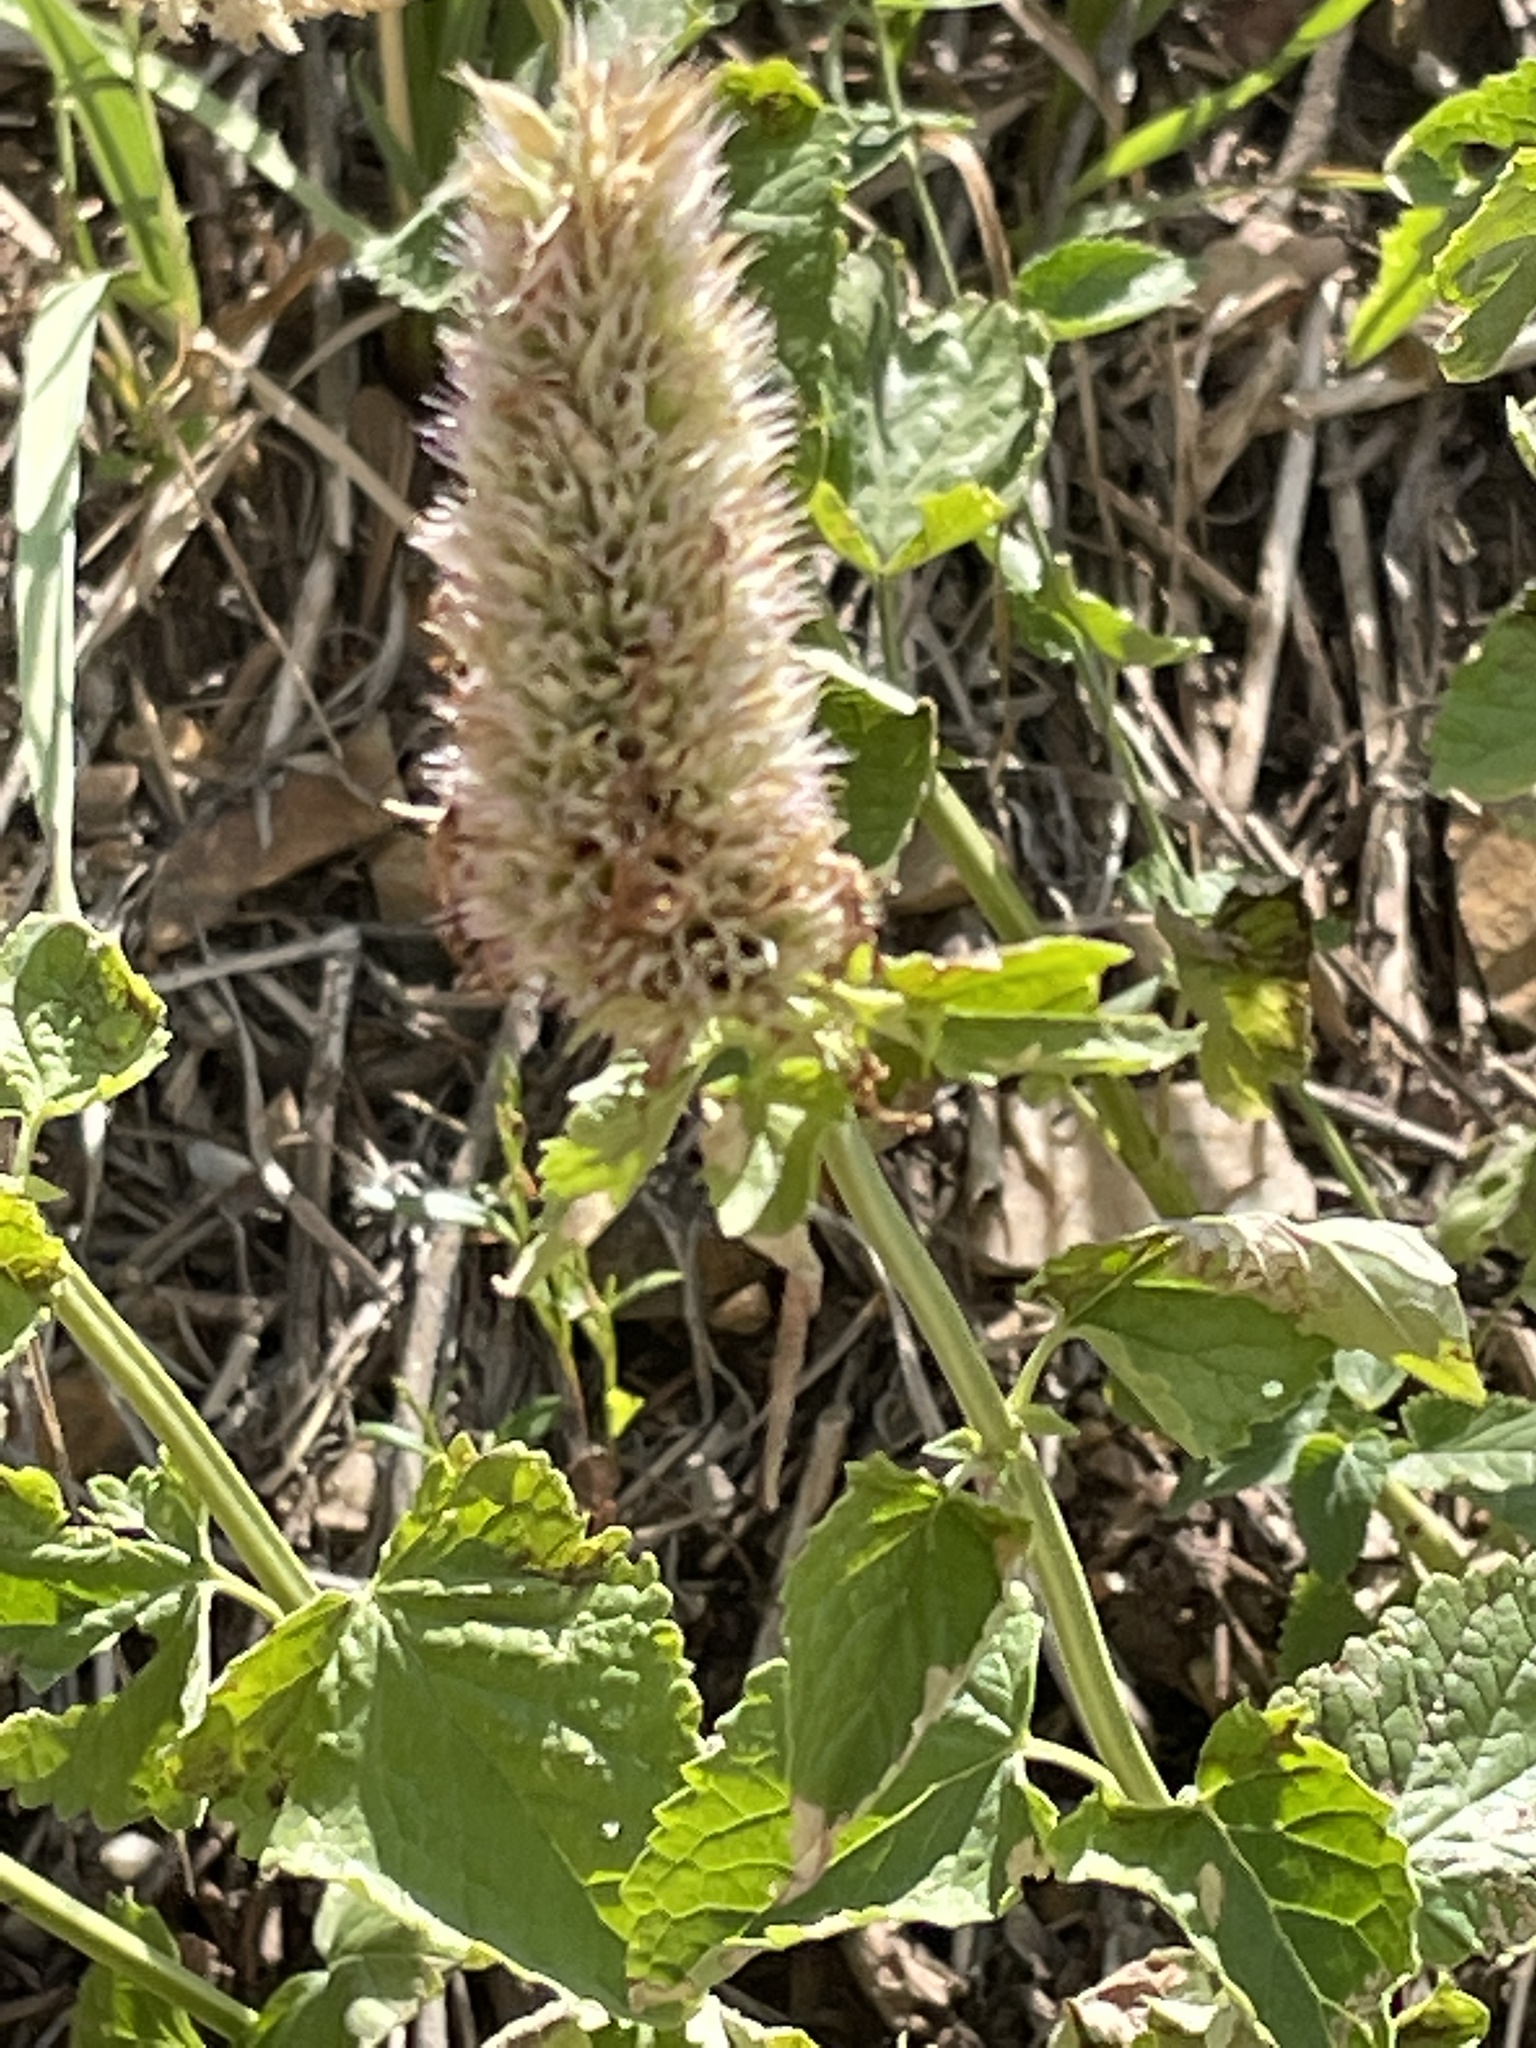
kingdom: Plantae
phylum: Tracheophyta
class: Magnoliopsida
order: Lamiales
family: Lamiaceae
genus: Agastache
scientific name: Agastache urticifolia
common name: Horsemint giant hyssop
